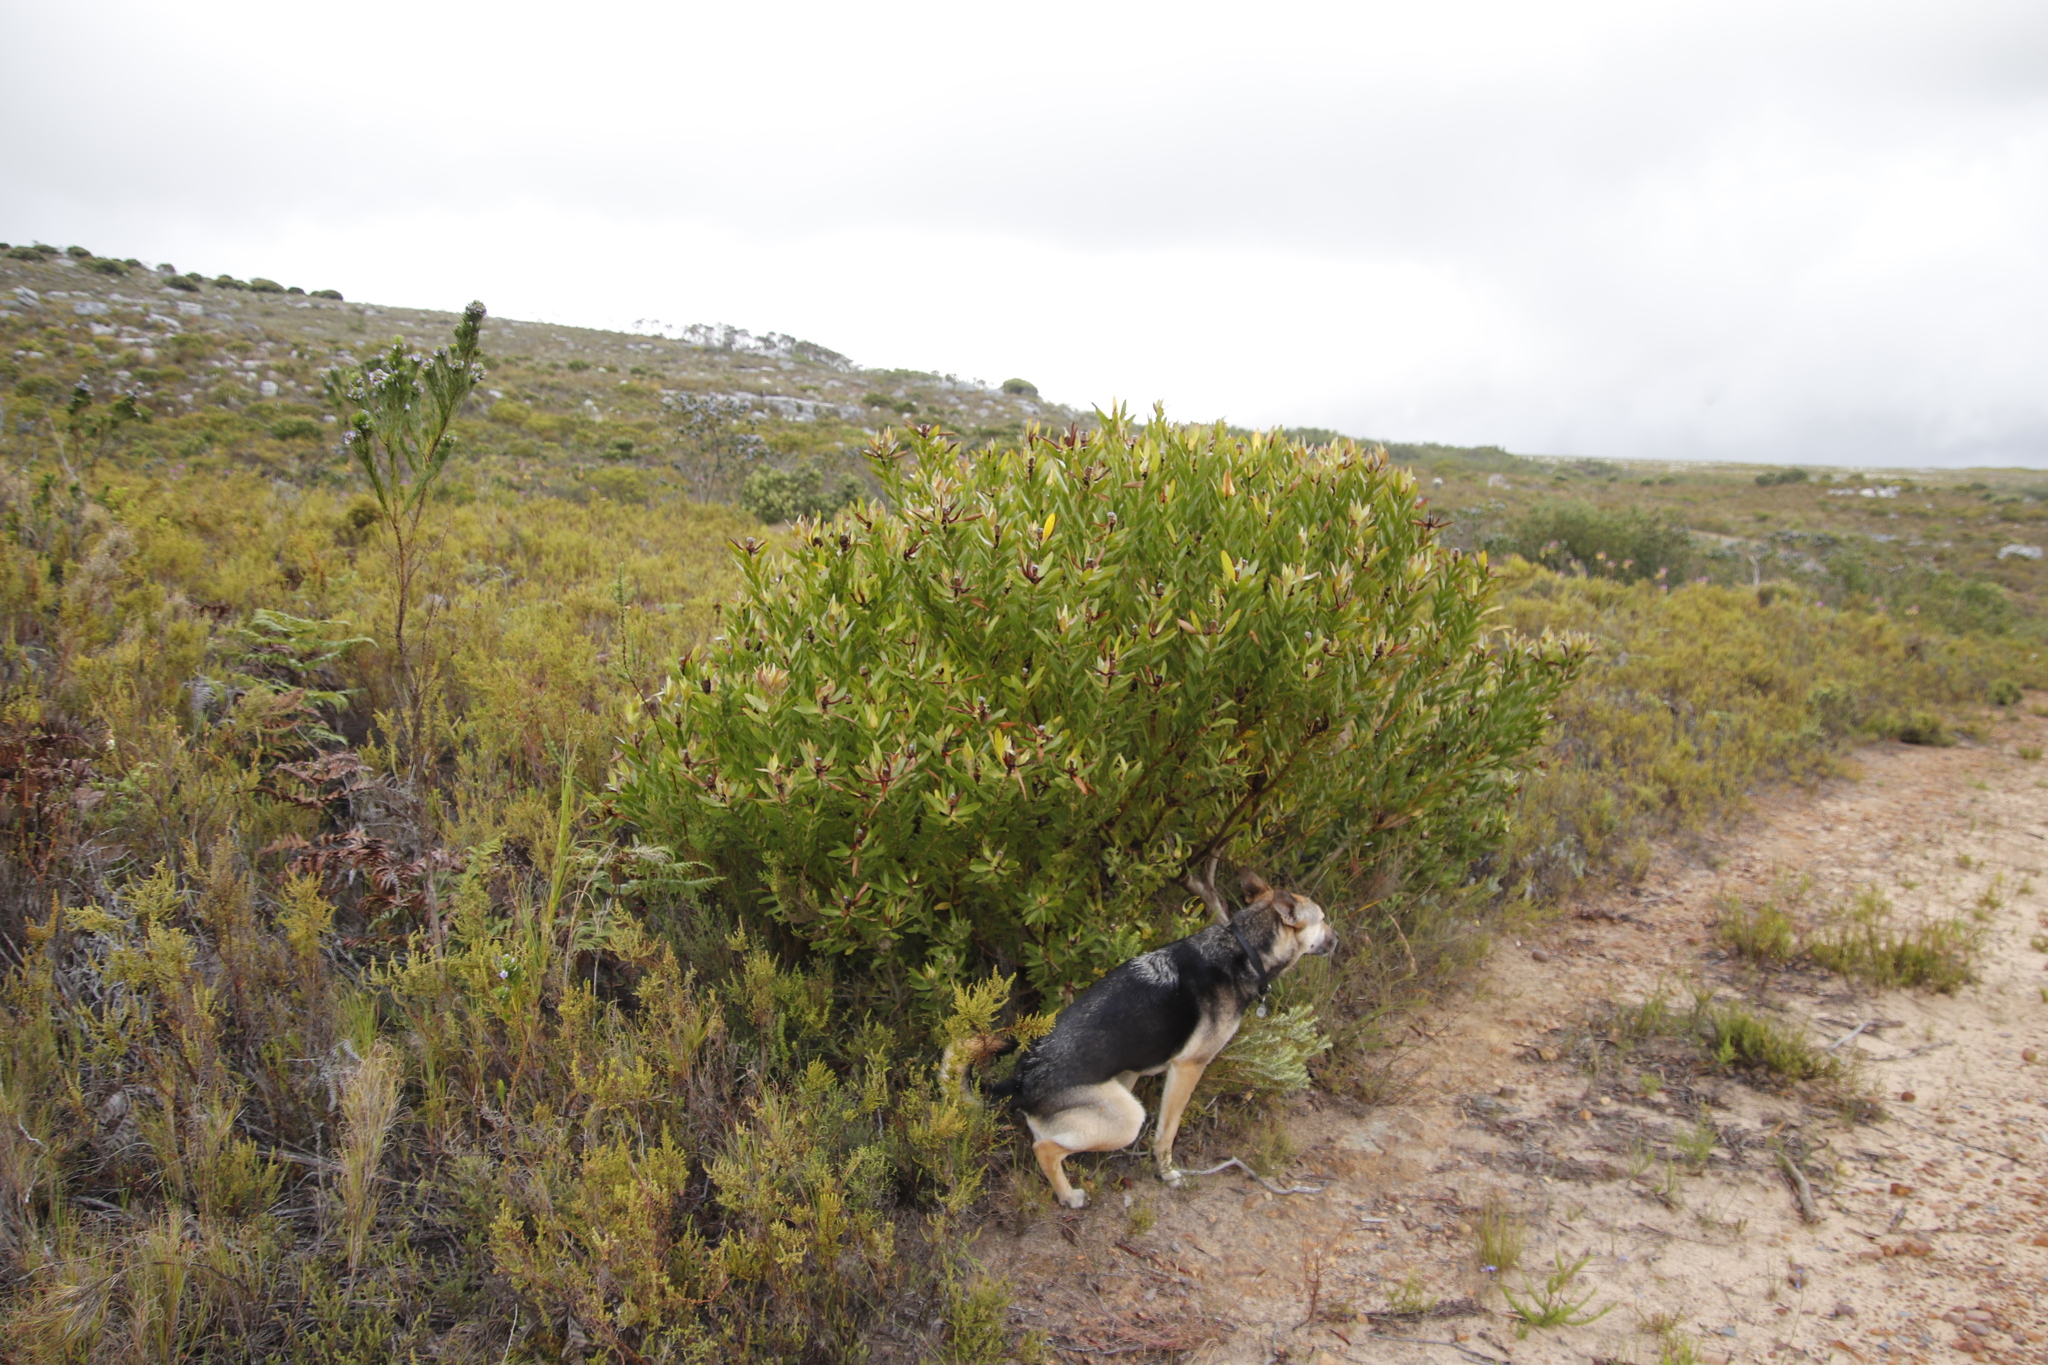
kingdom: Plantae
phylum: Tracheophyta
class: Magnoliopsida
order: Proteales
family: Proteaceae
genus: Leucadendron
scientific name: Leucadendron laureolum
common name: Golden sunshinebush
